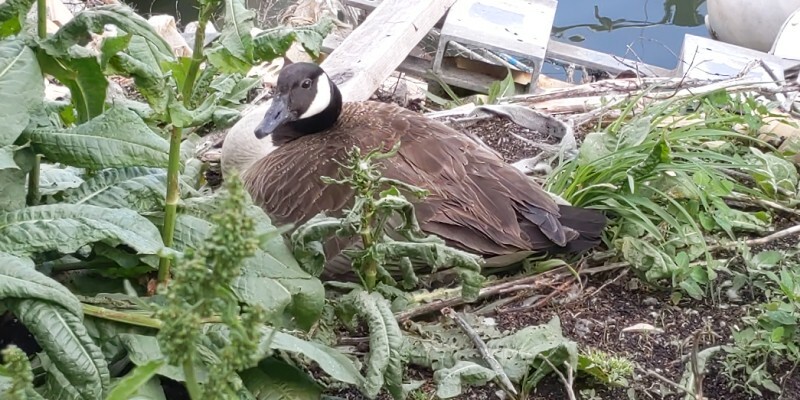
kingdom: Animalia
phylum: Chordata
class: Aves
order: Anseriformes
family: Anatidae
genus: Branta
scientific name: Branta canadensis
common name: Canada goose
